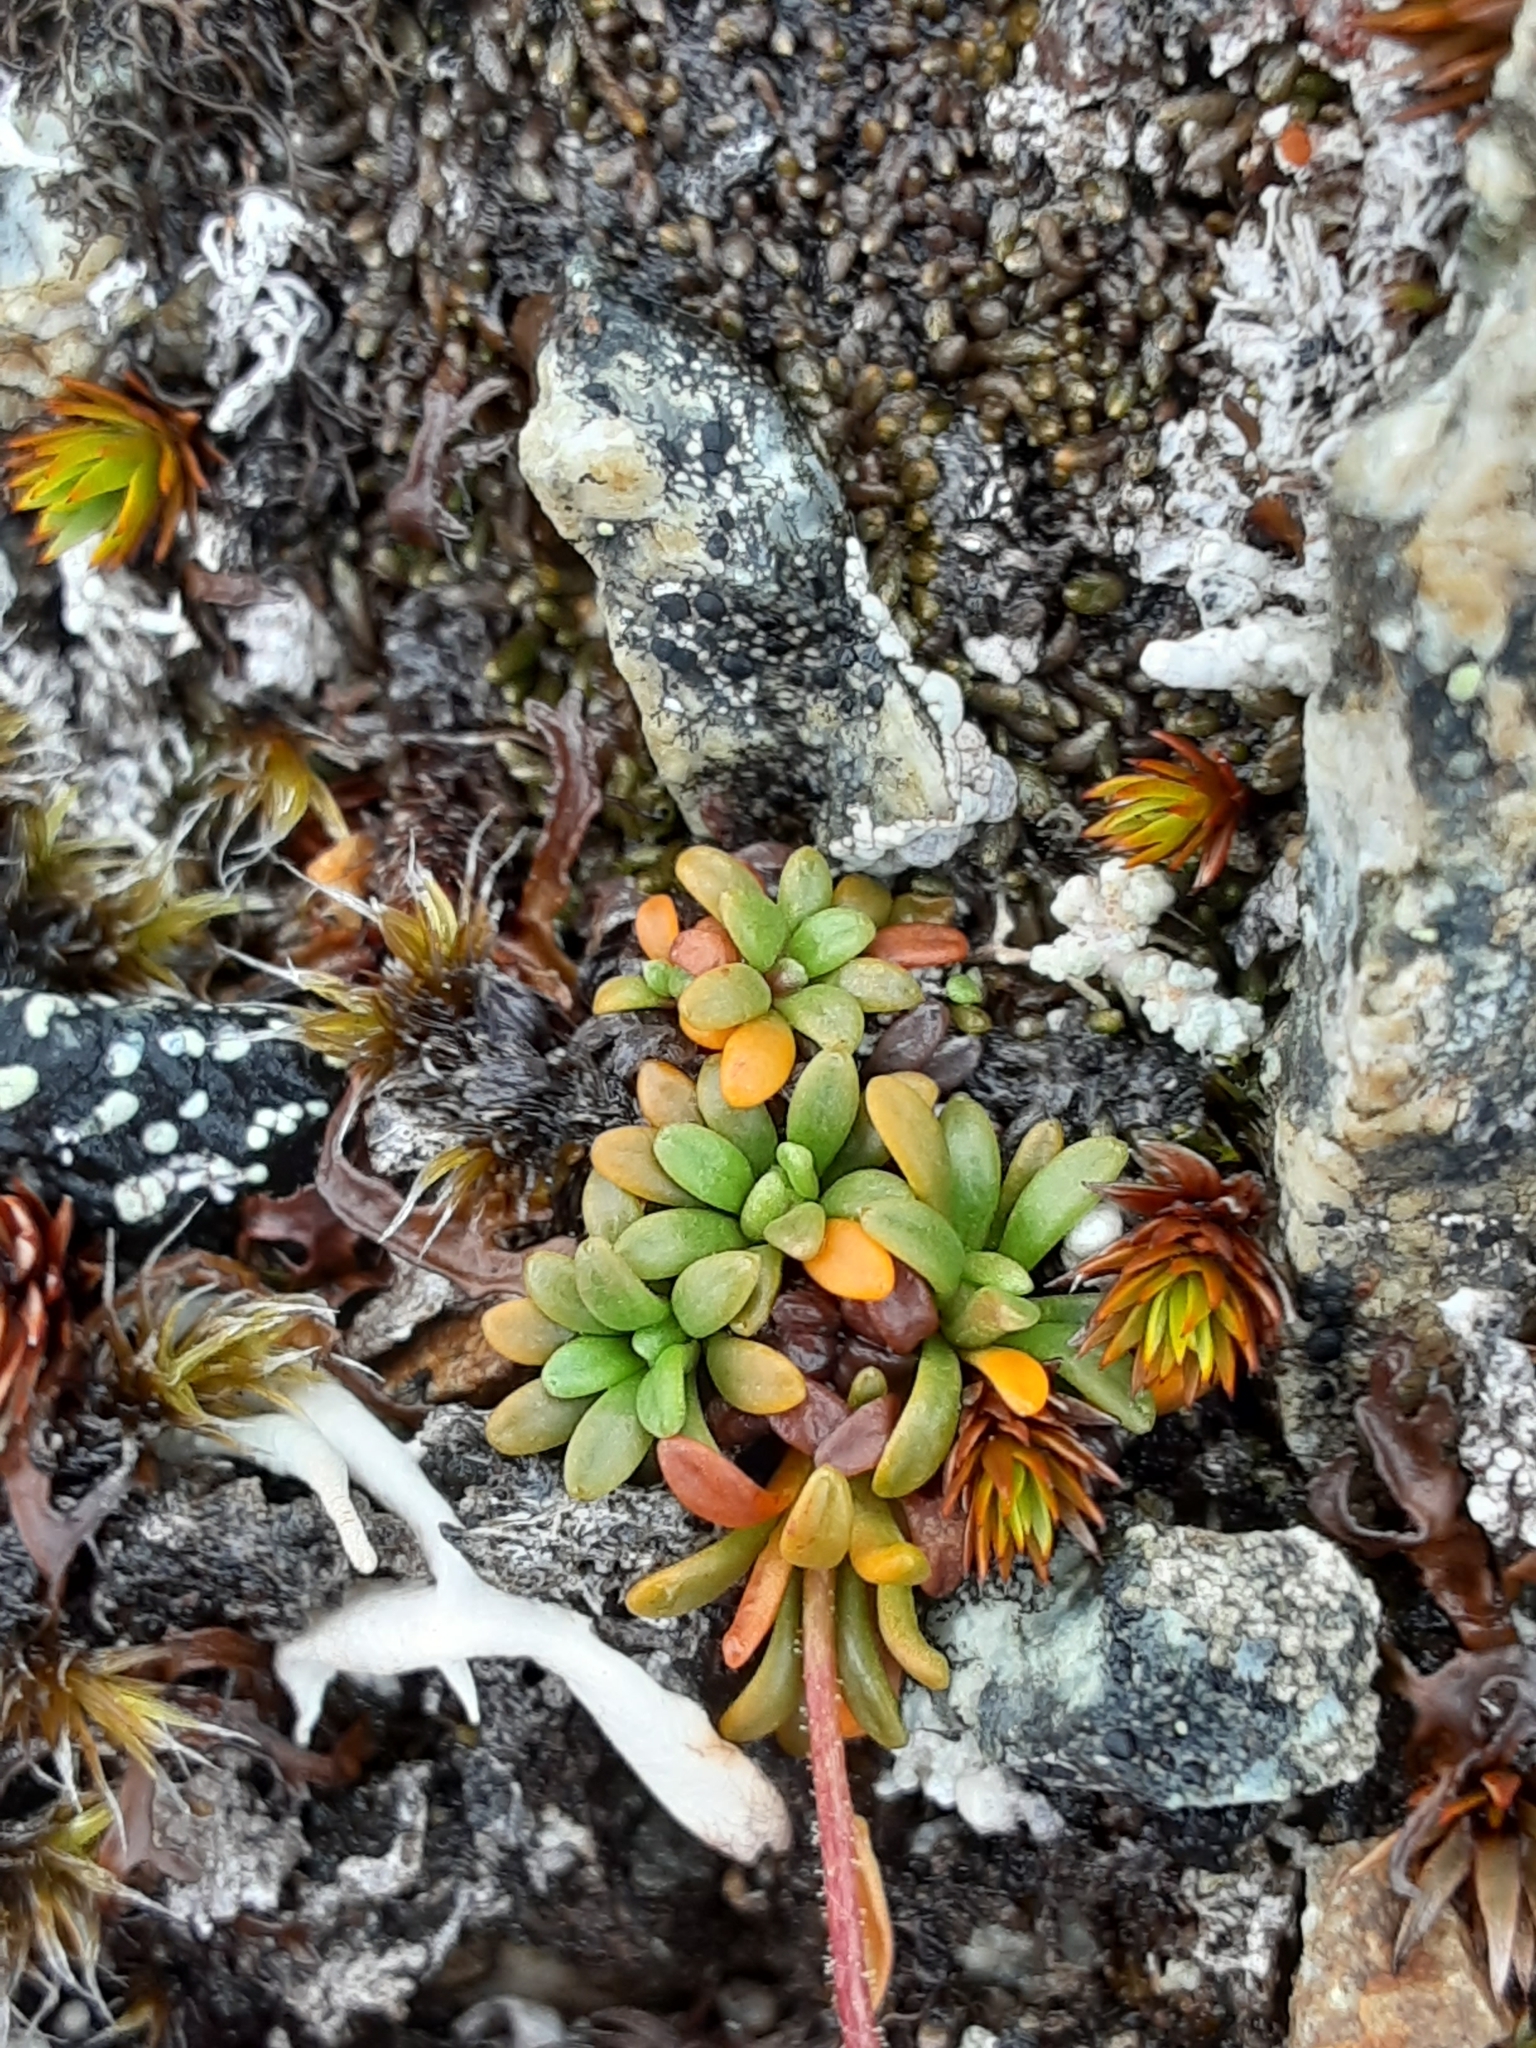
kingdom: Plantae
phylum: Tracheophyta
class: Magnoliopsida
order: Saxifragales
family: Saxifragaceae
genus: Saxifraga
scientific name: Saxifraga hirculus
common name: Yellow marsh saxifrage
